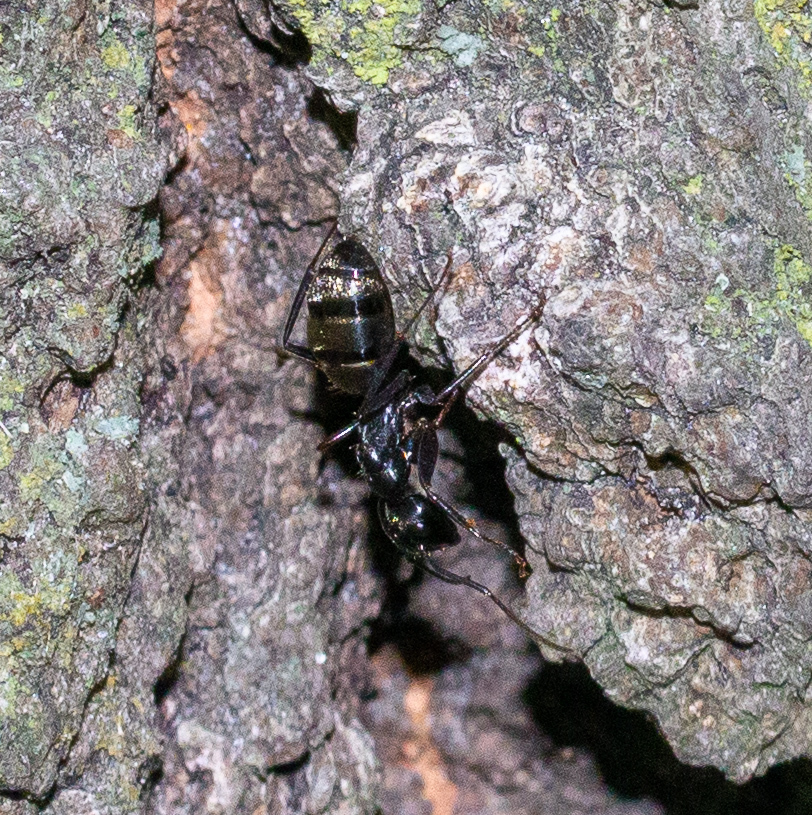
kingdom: Animalia
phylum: Arthropoda
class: Insecta
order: Hymenoptera
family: Formicidae
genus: Camponotus
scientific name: Camponotus pennsylvanicus
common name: Black carpenter ant
